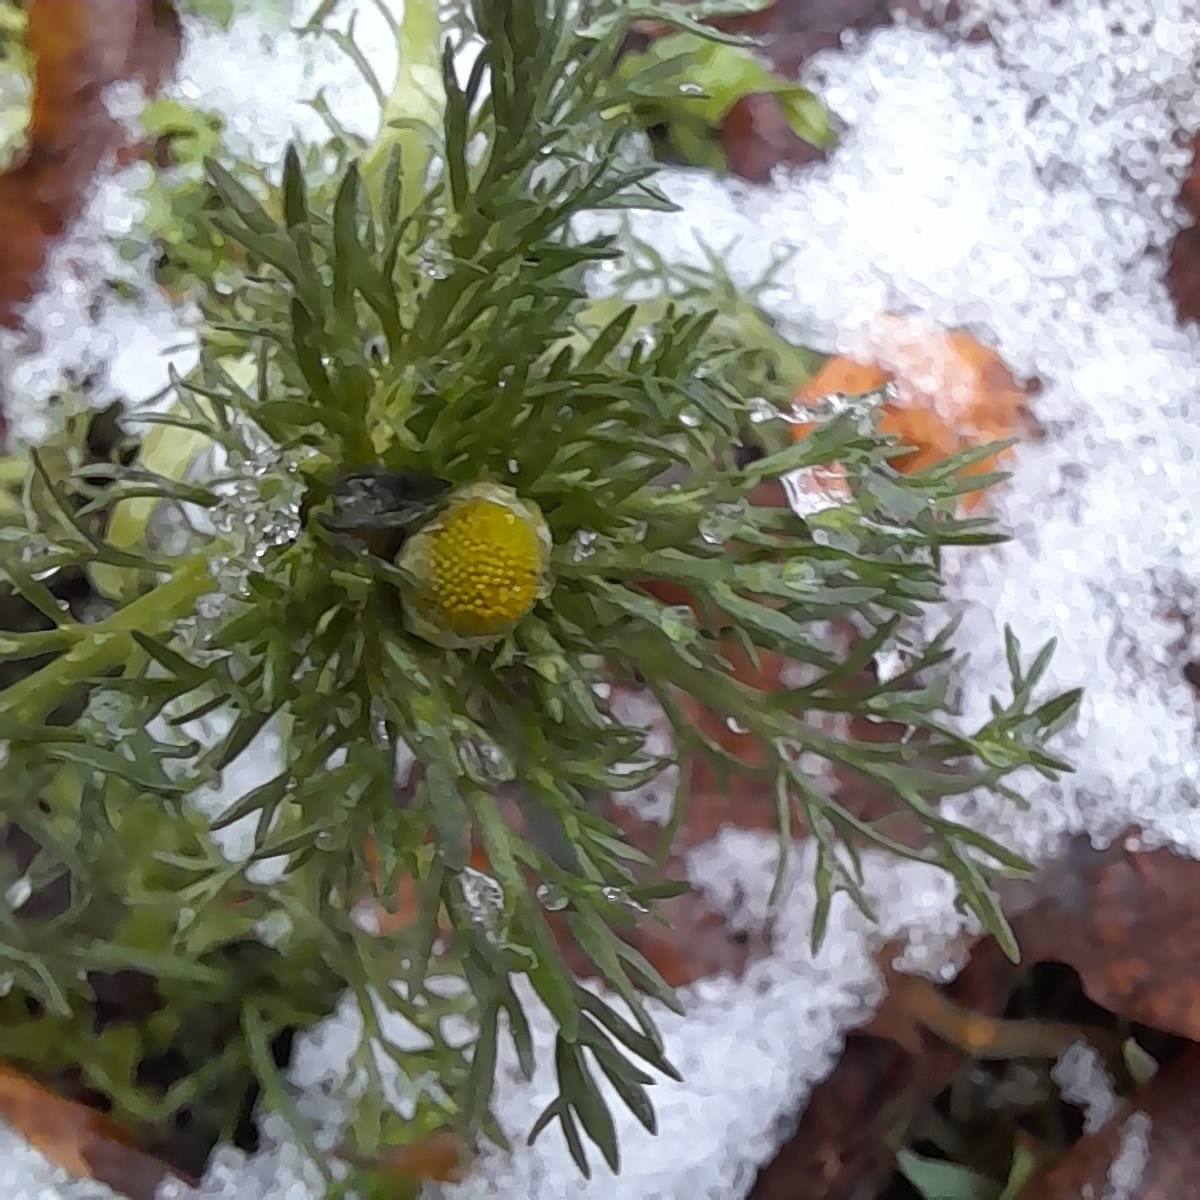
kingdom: Plantae
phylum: Tracheophyta
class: Magnoliopsida
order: Asterales
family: Asteraceae
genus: Matricaria
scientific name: Matricaria discoidea
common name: Disc mayweed
